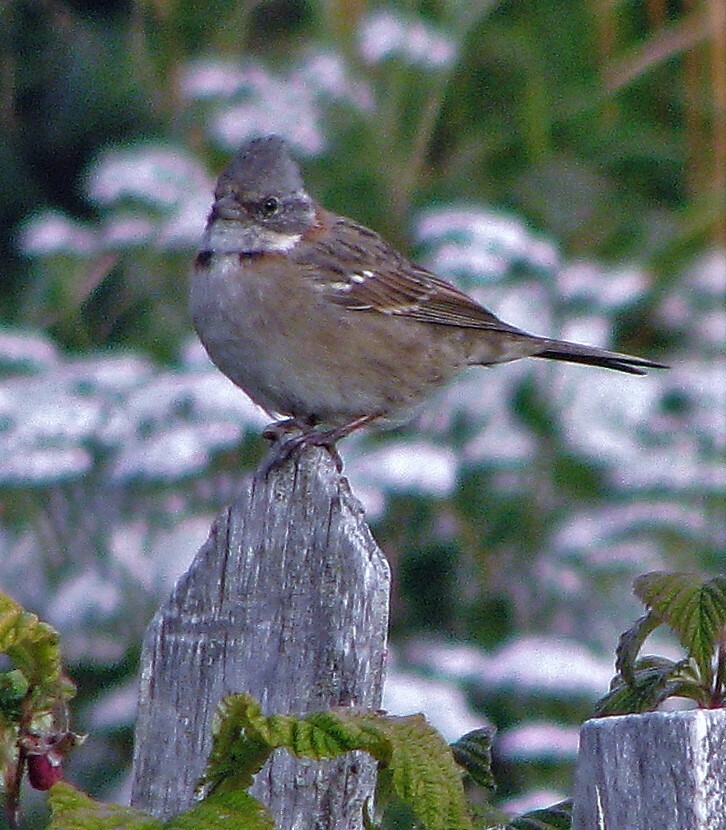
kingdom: Animalia
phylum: Chordata
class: Aves
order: Passeriformes
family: Passerellidae
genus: Zonotrichia
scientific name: Zonotrichia capensis
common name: Rufous-collared sparrow
